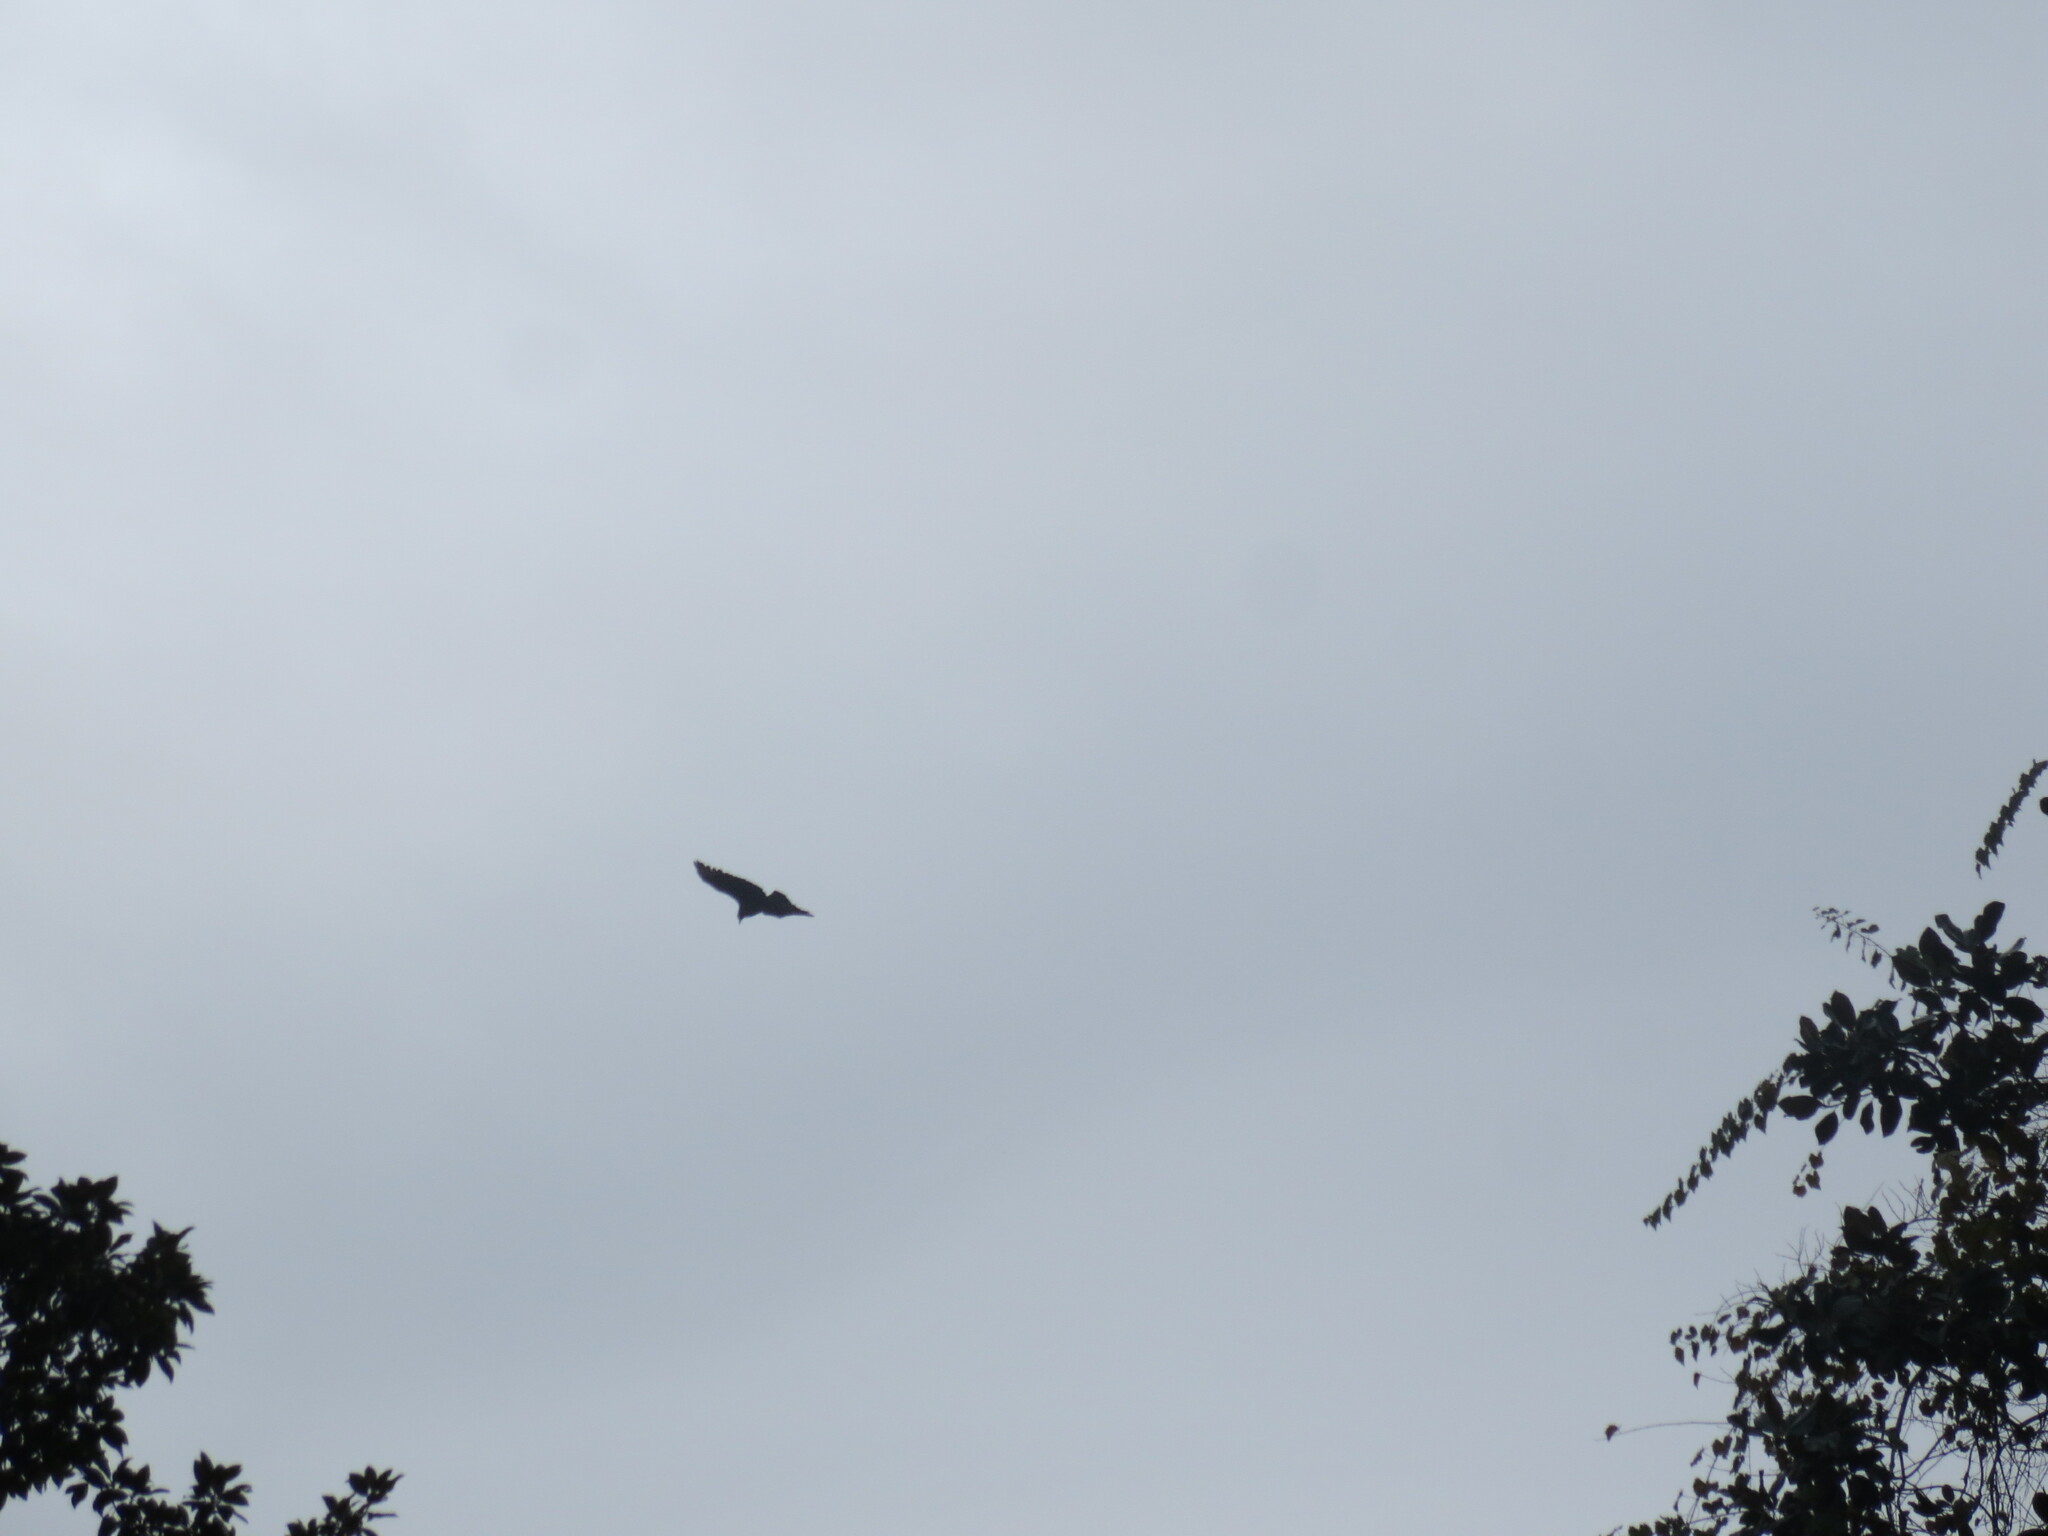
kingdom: Animalia
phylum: Chordata
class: Aves
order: Accipitriformes
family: Cathartidae
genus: Cathartes
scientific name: Cathartes aura
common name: Turkey vulture
